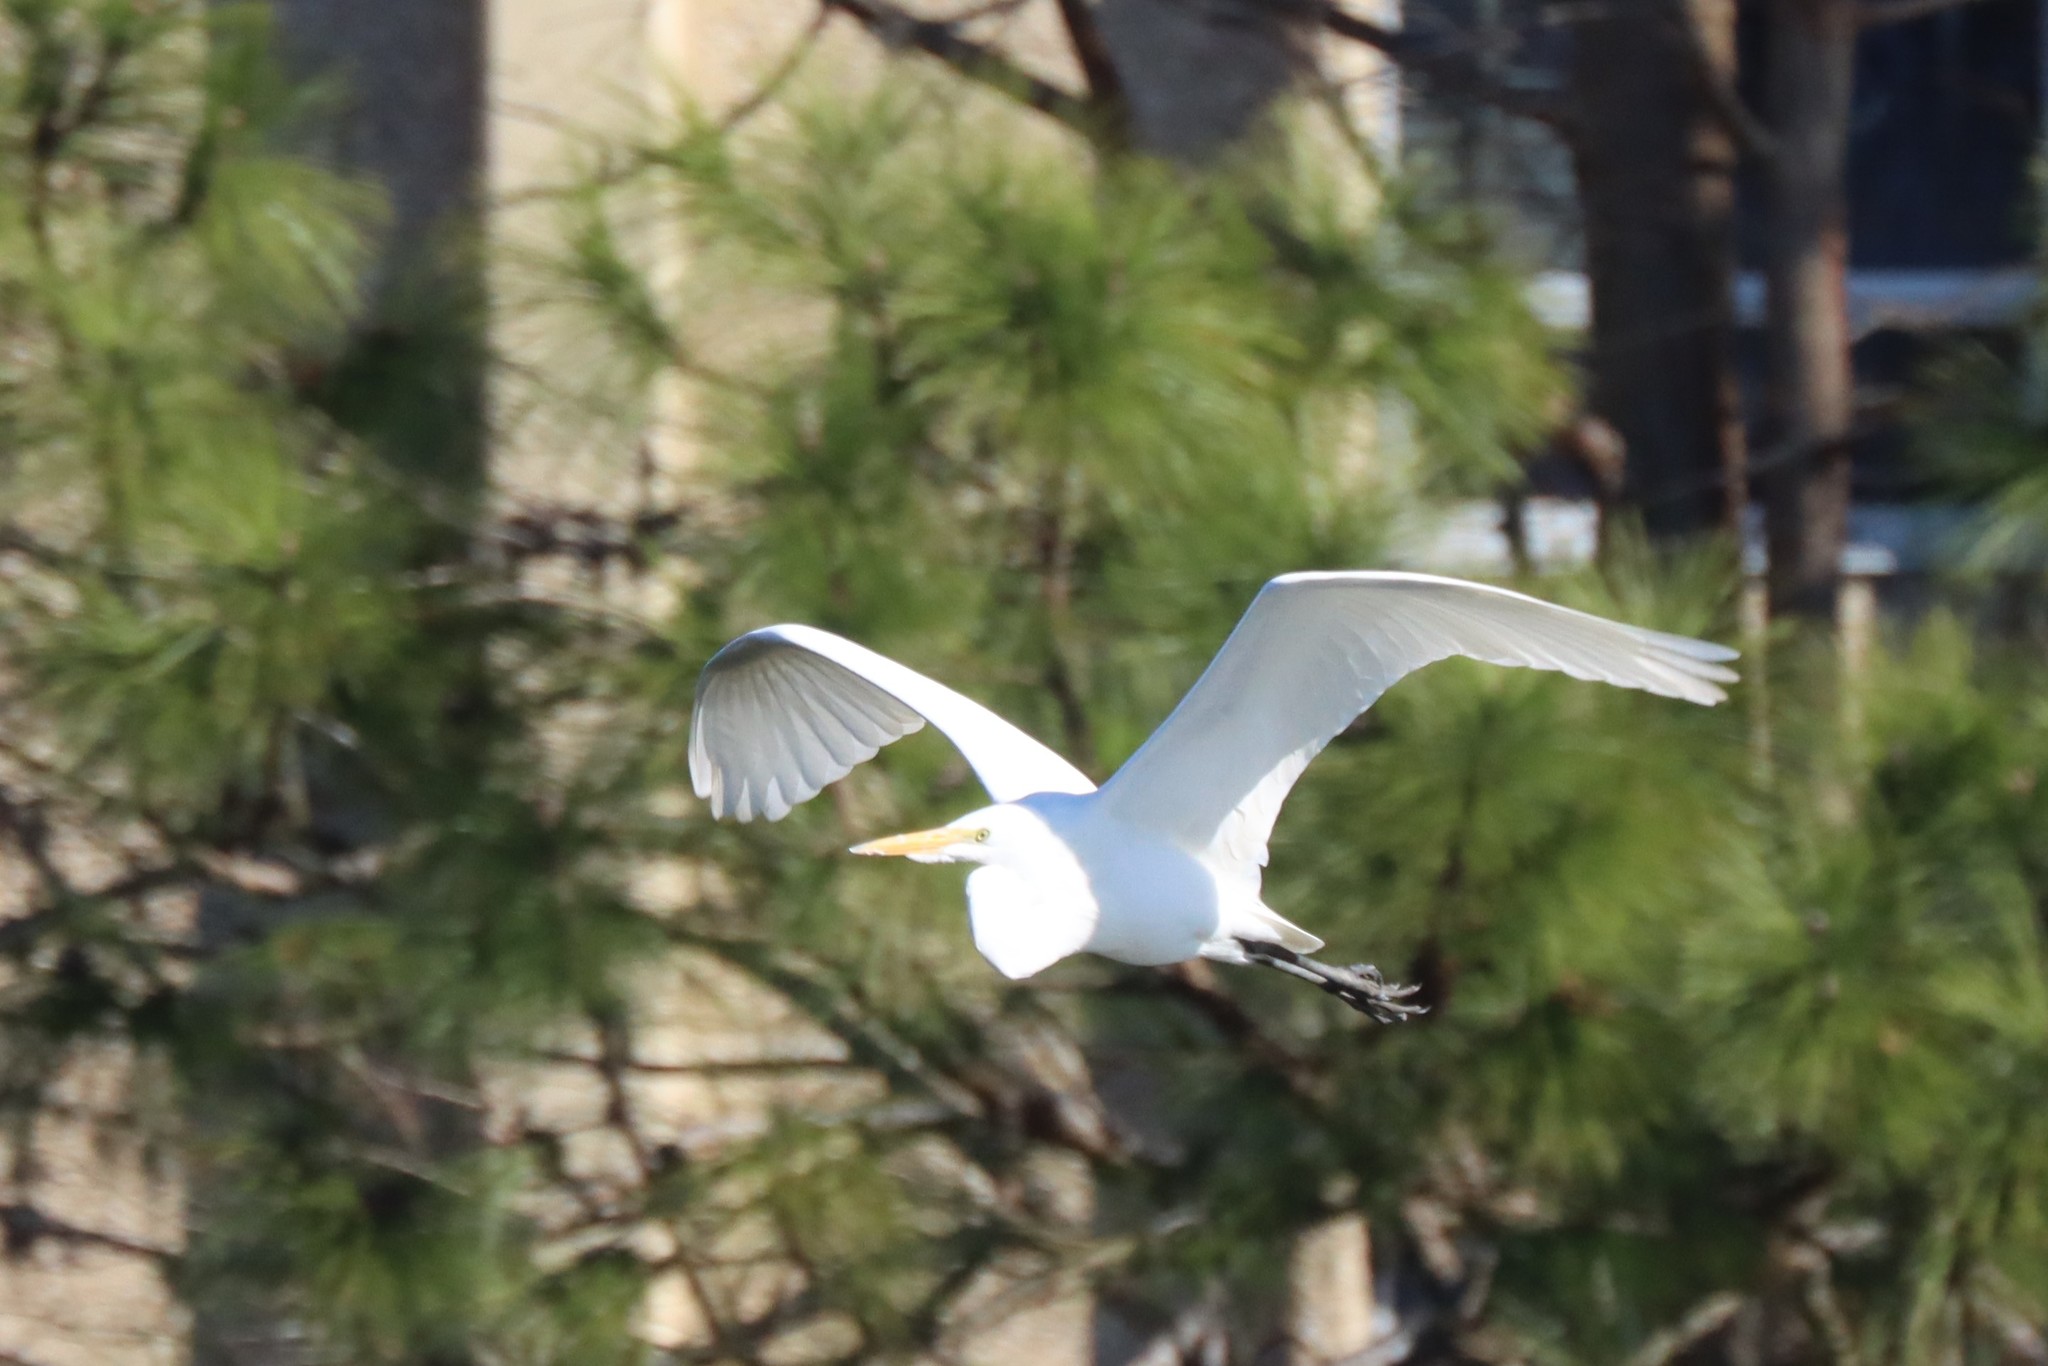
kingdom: Animalia
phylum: Chordata
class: Aves
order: Pelecaniformes
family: Ardeidae
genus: Ardea
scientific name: Ardea alba
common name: Great egret
